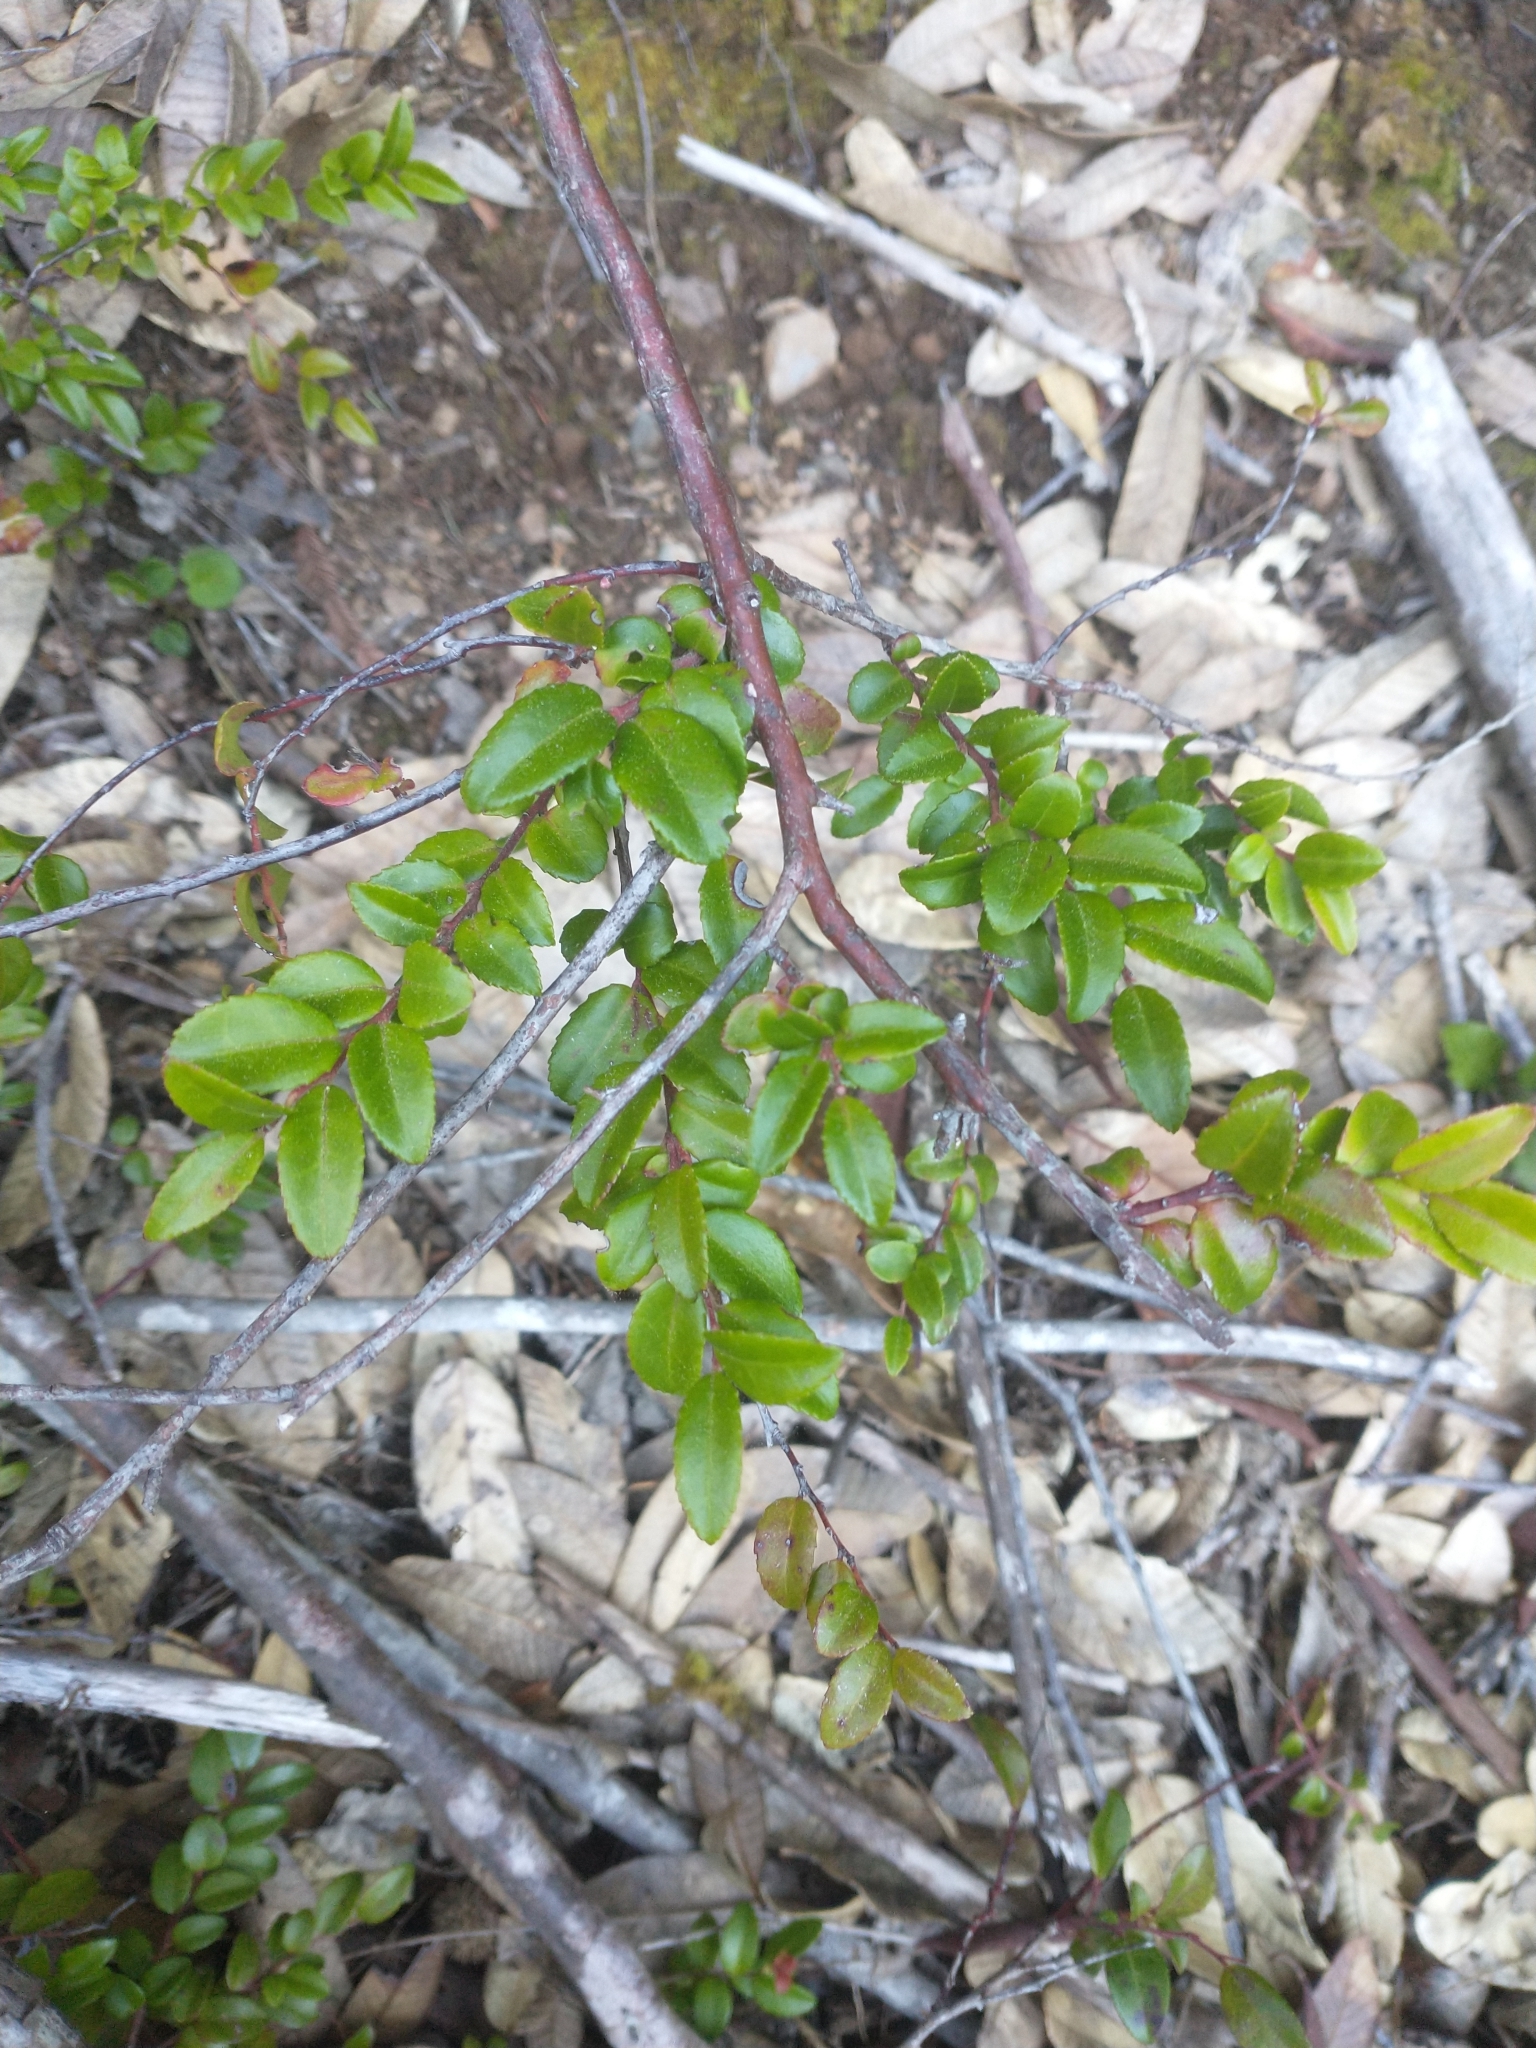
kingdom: Plantae
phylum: Tracheophyta
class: Magnoliopsida
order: Ericales
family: Ericaceae
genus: Vaccinium
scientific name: Vaccinium ovatum
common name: California-huckleberry
